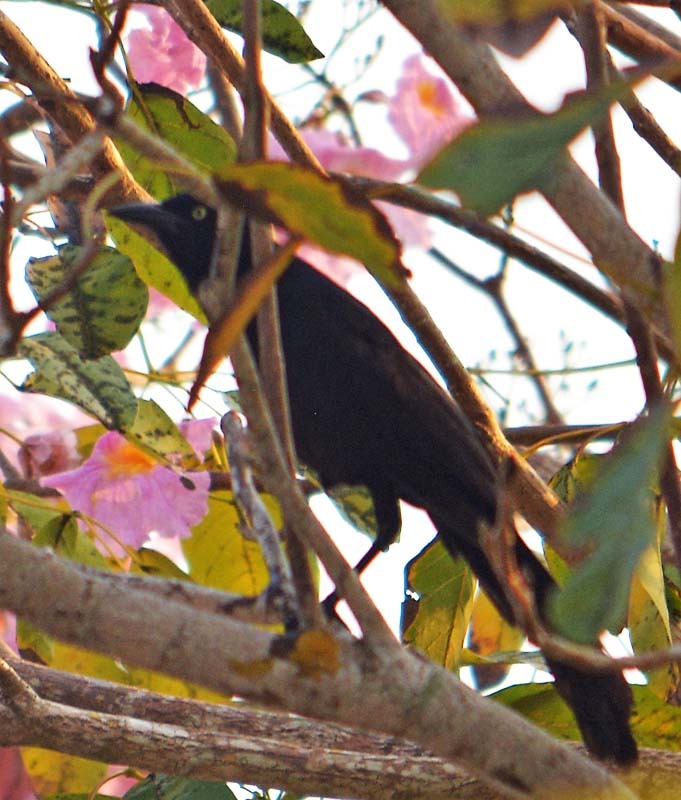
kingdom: Animalia
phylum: Chordata
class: Aves
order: Passeriformes
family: Icteridae
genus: Quiscalus
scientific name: Quiscalus mexicanus
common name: Great-tailed grackle
